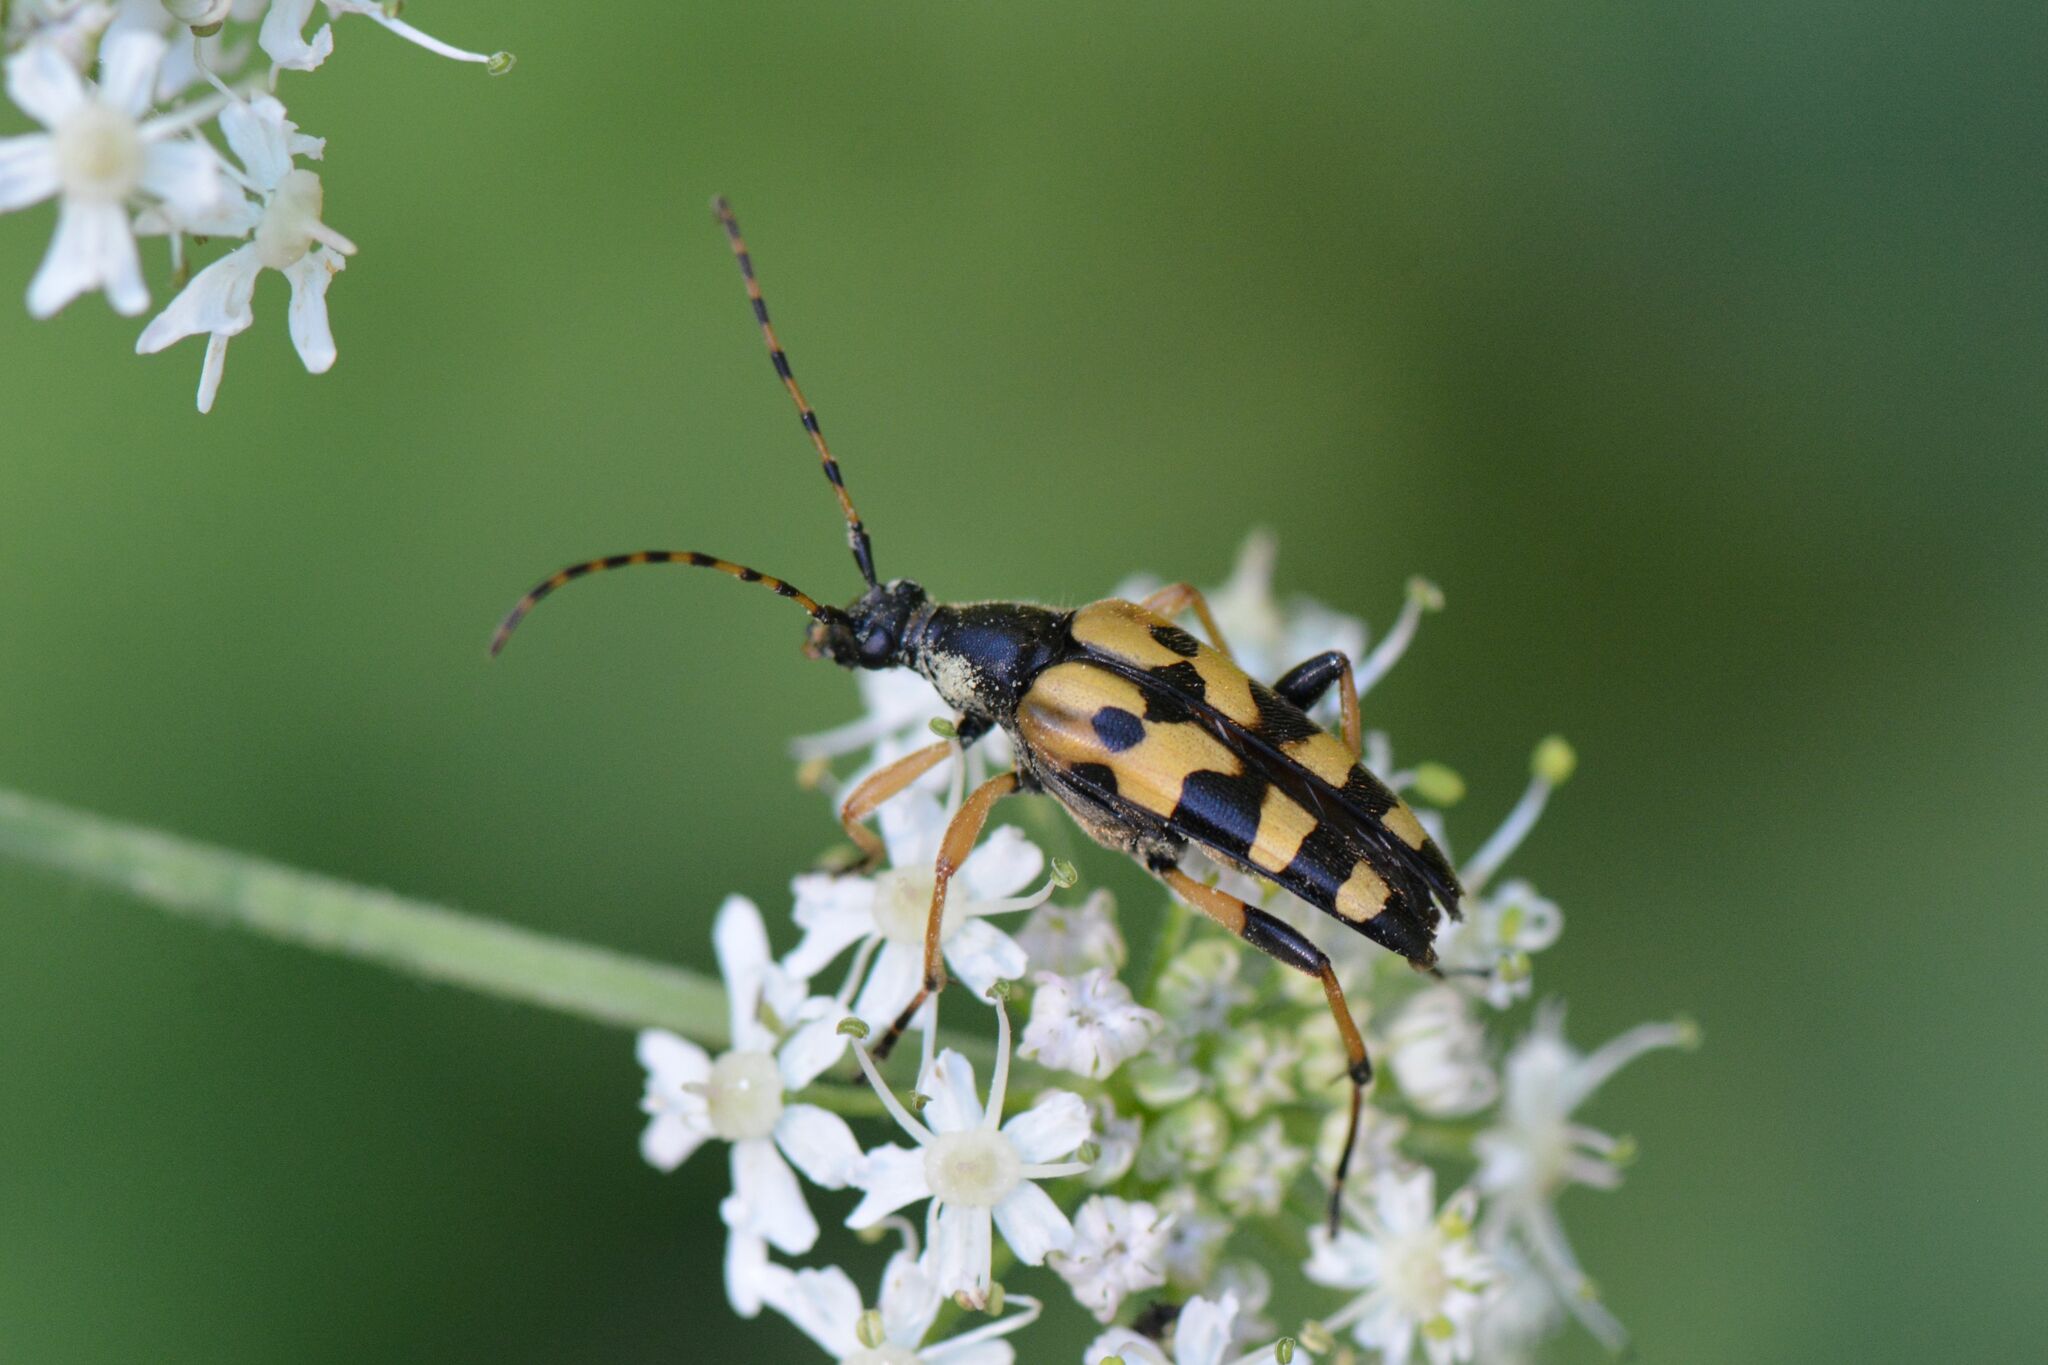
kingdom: Animalia
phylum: Arthropoda
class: Insecta
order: Coleoptera
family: Cerambycidae
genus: Rutpela
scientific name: Rutpela maculata
